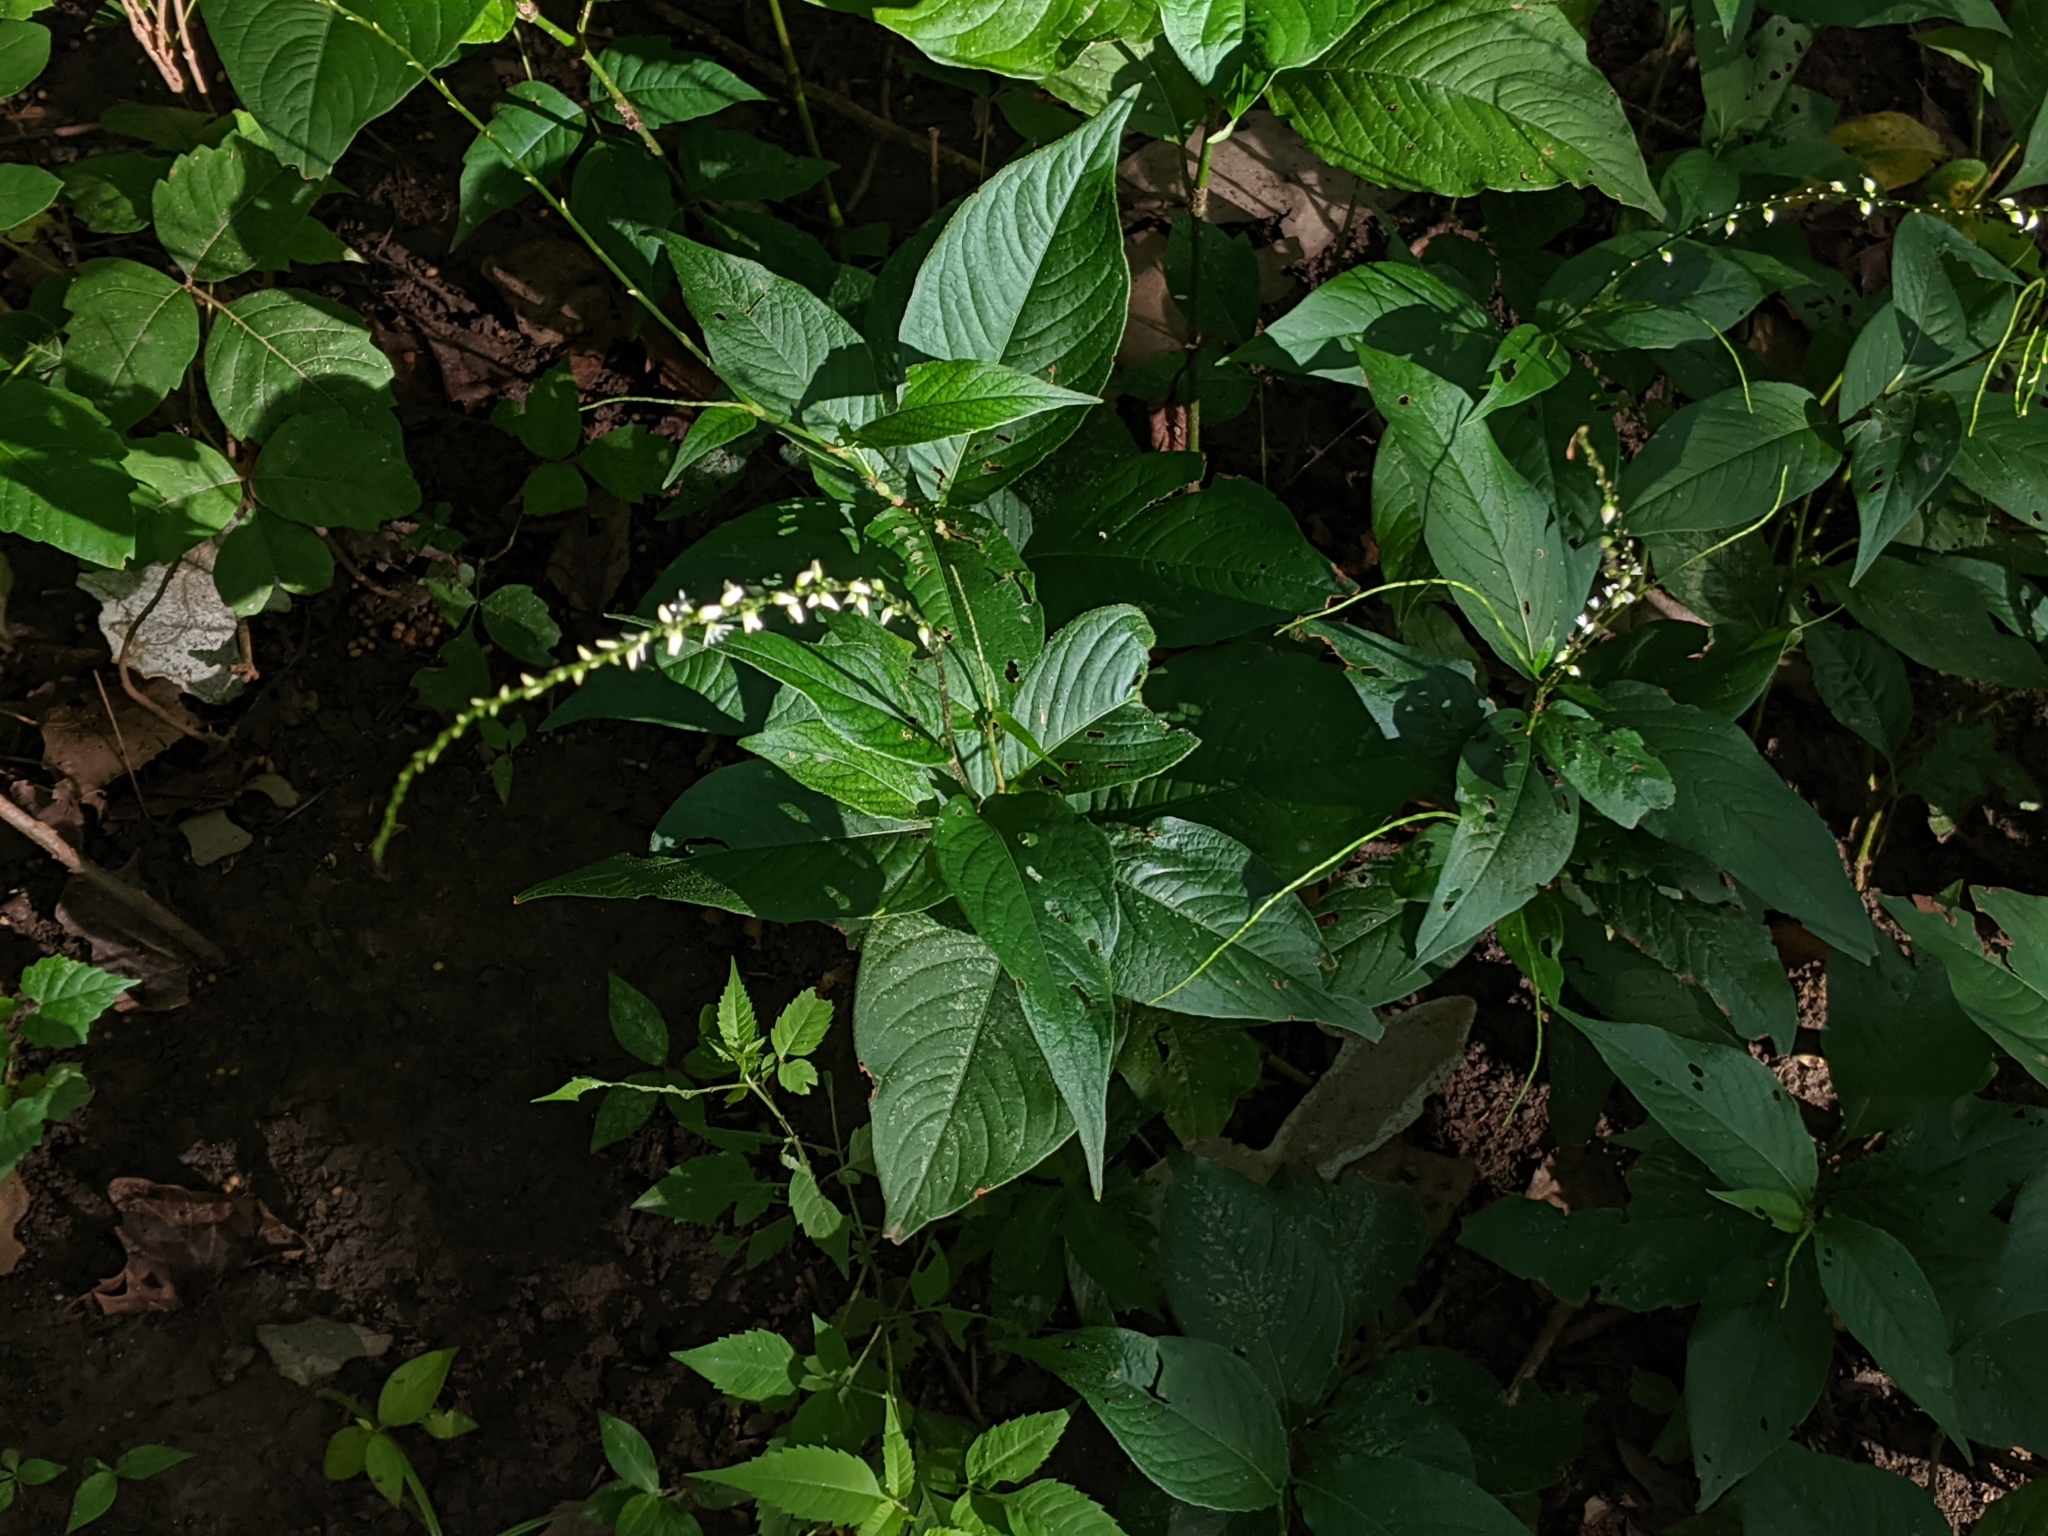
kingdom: Plantae
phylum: Tracheophyta
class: Magnoliopsida
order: Caryophyllales
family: Polygonaceae
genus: Persicaria
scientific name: Persicaria virginiana
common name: Jumpseed
